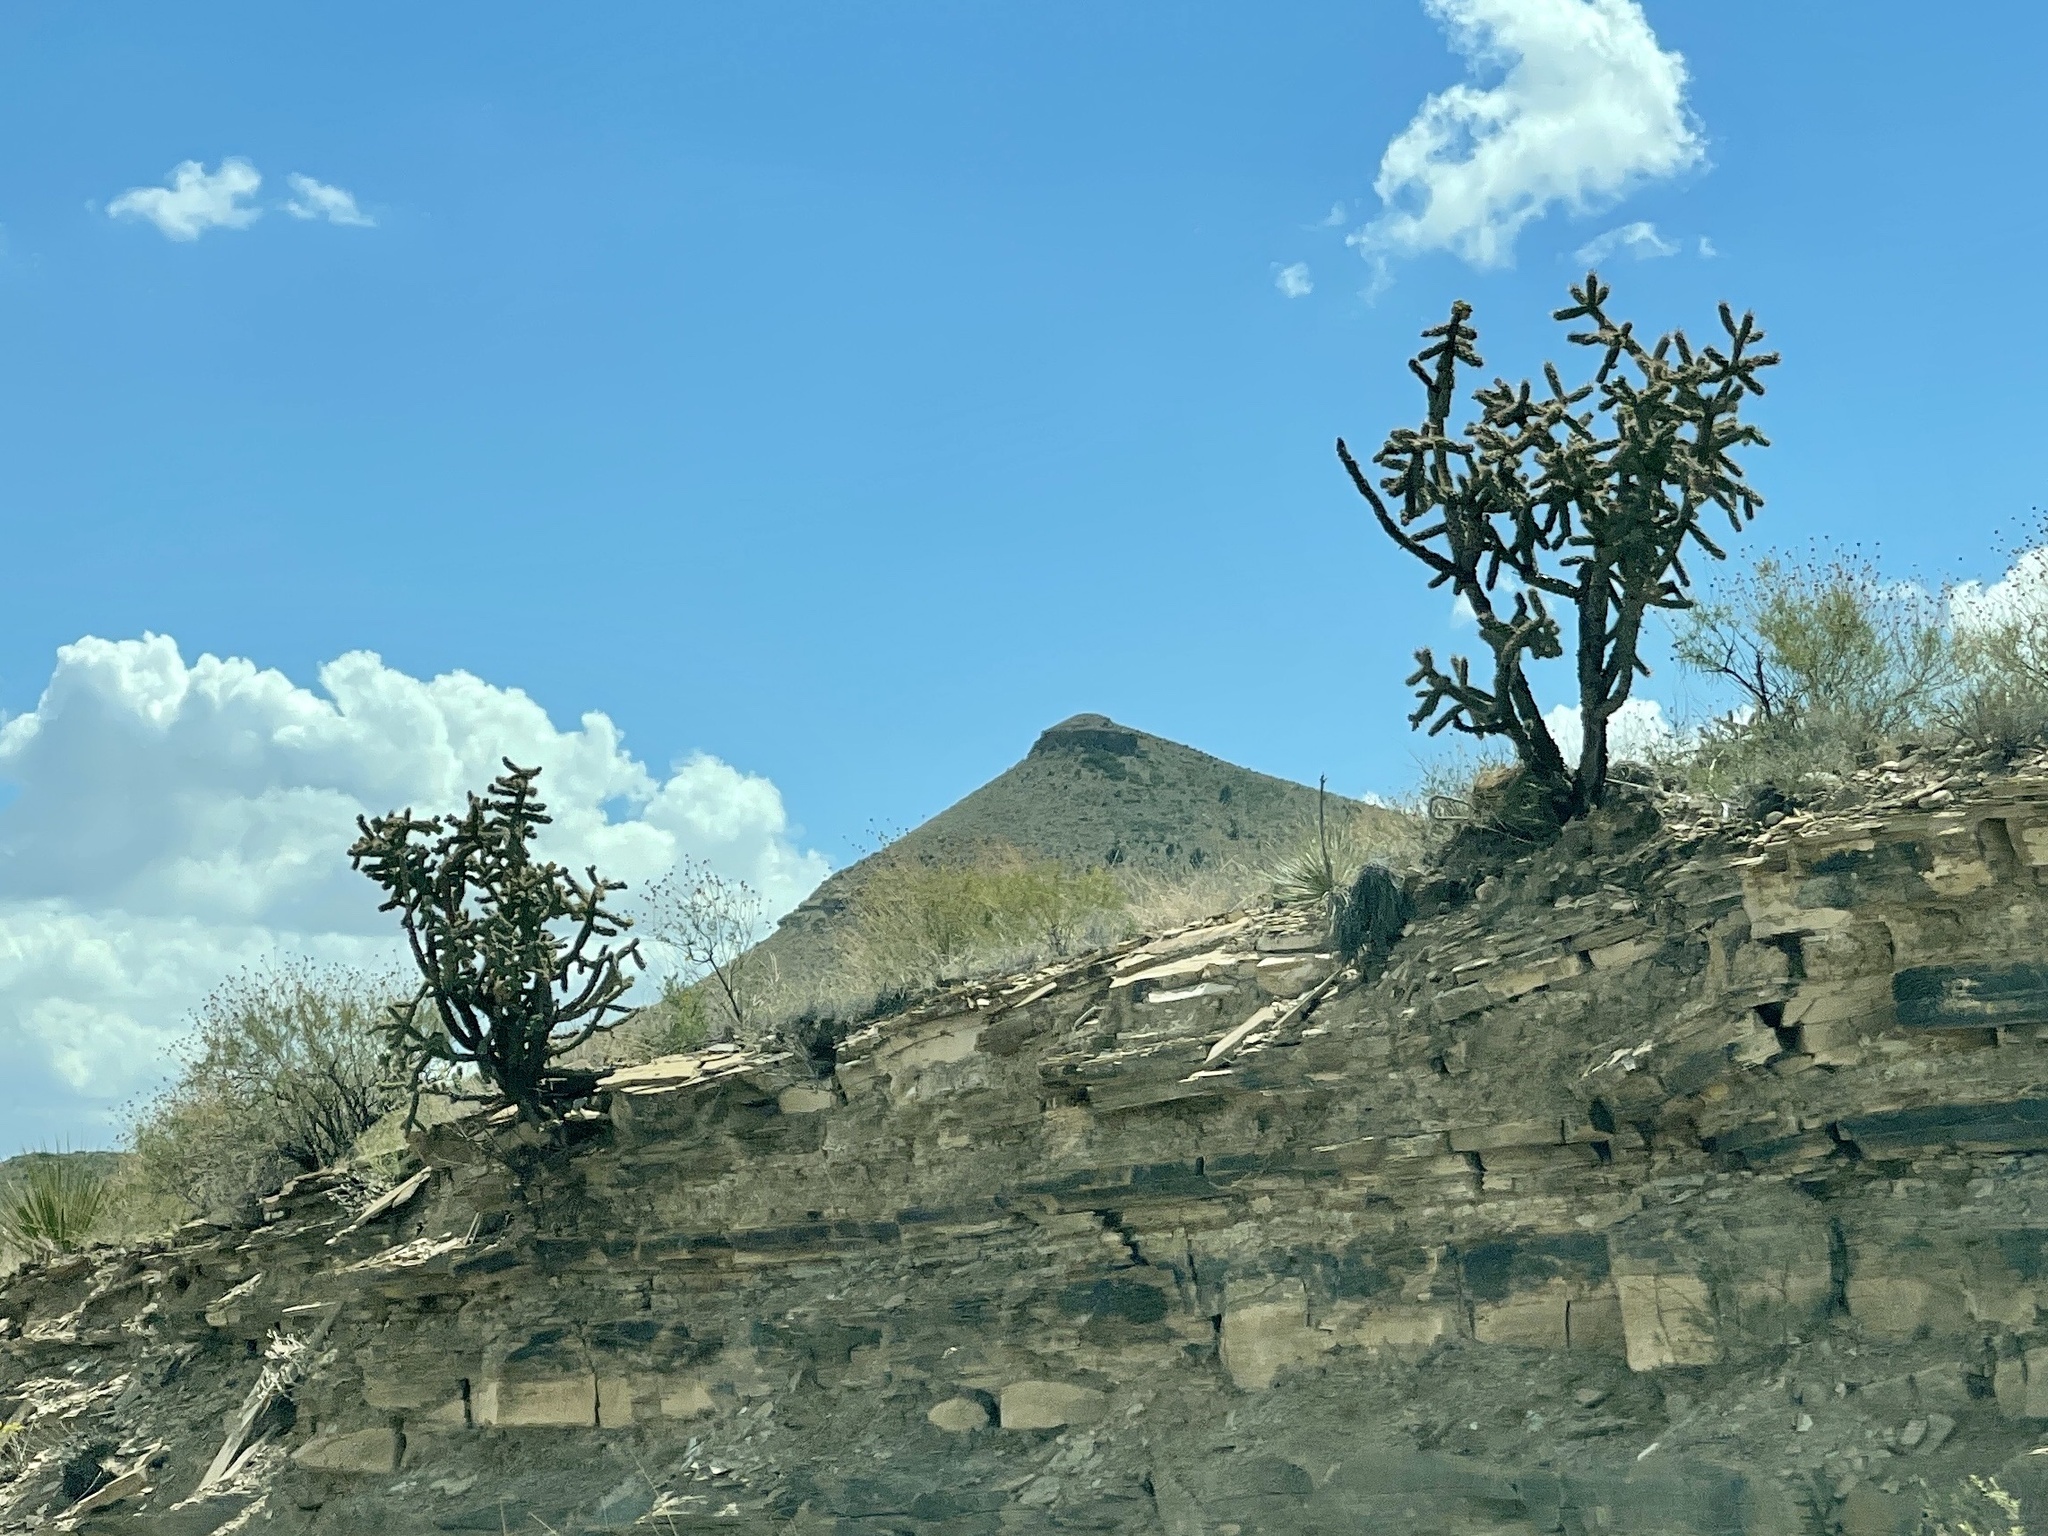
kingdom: Plantae
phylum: Tracheophyta
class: Magnoliopsida
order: Caryophyllales
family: Cactaceae
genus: Cylindropuntia
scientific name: Cylindropuntia imbricata
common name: Candelabrum cactus
